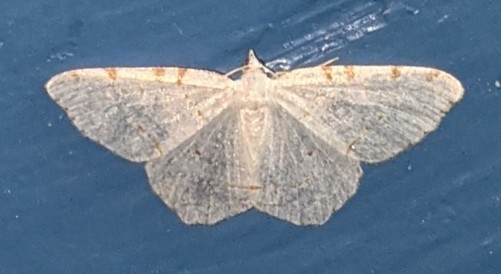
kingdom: Animalia
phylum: Arthropoda
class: Insecta
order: Lepidoptera
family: Geometridae
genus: Macaria
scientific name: Macaria pustularia
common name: Lesser maple spanworm moth
